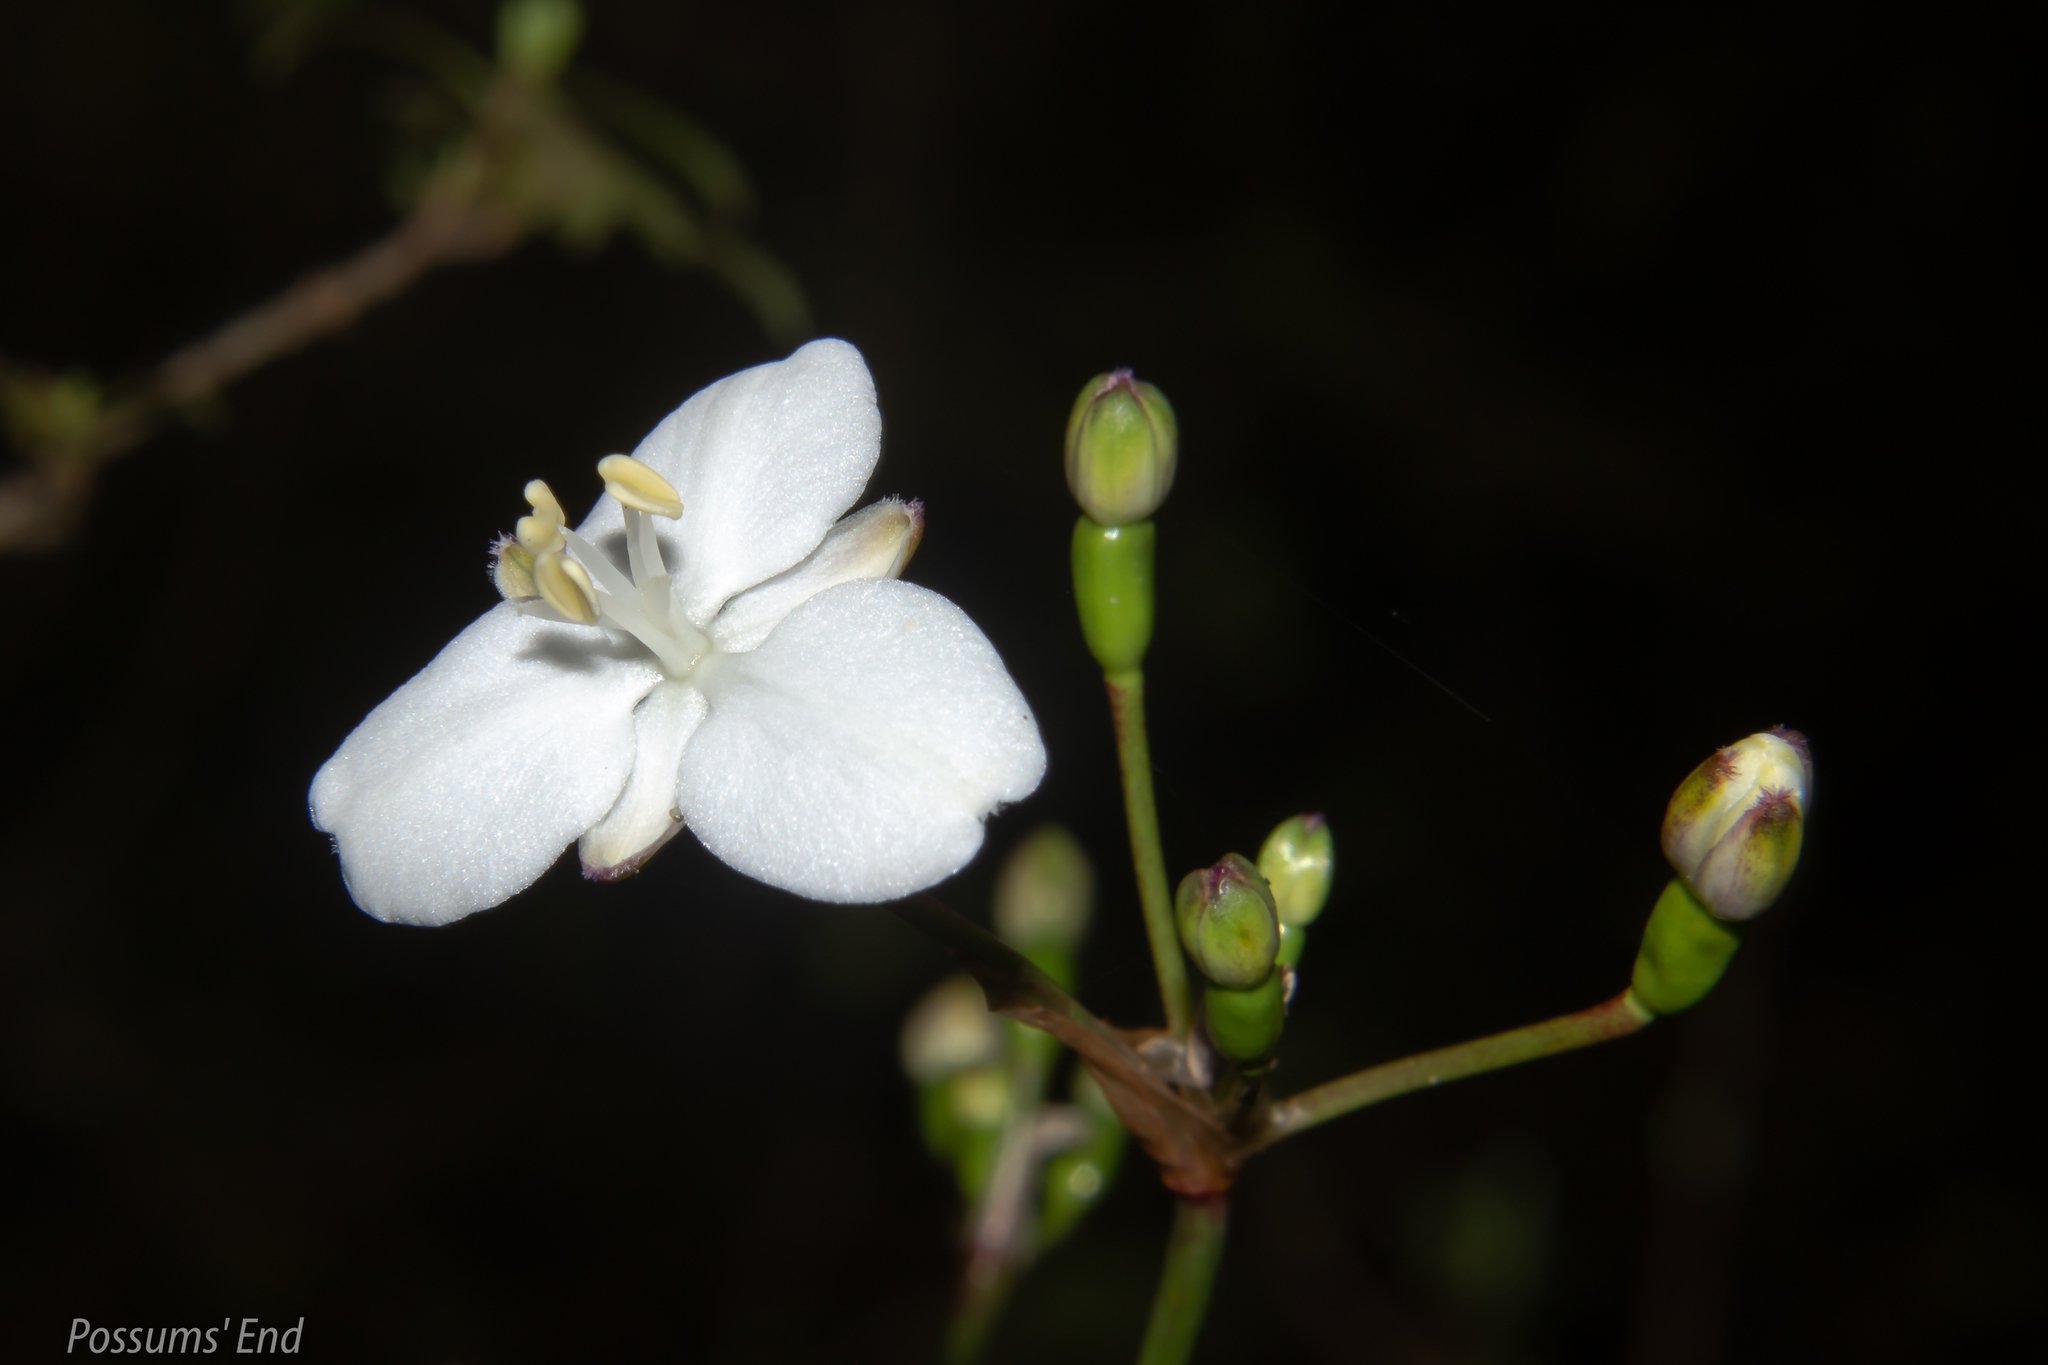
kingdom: Plantae
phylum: Tracheophyta
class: Liliopsida
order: Asparagales
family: Iridaceae
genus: Libertia
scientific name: Libertia ixioides
